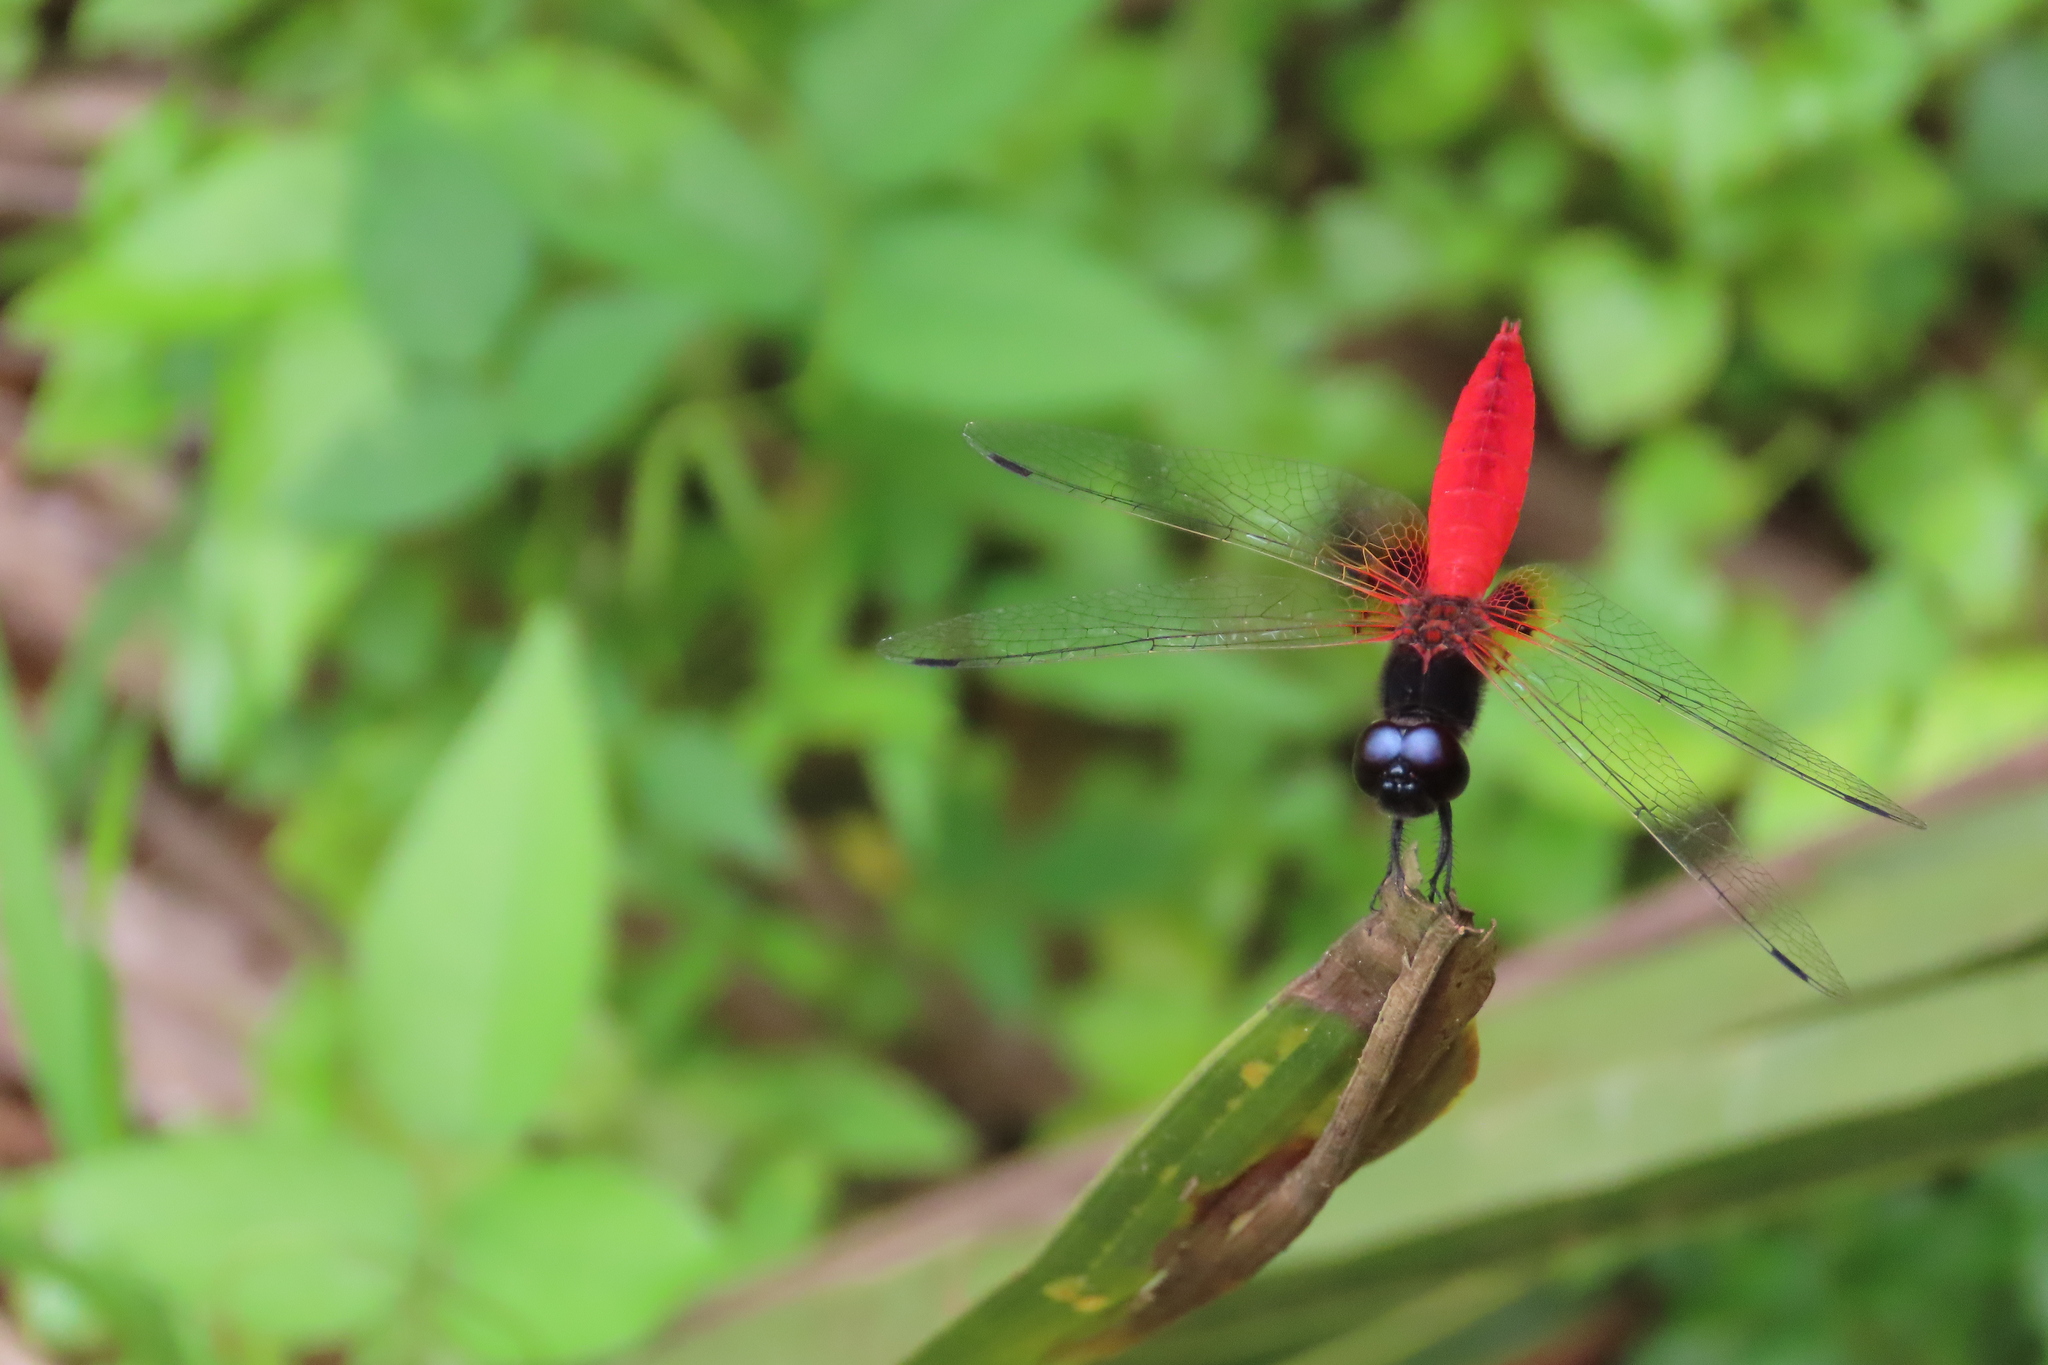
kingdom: Animalia
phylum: Arthropoda
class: Insecta
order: Odonata
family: Libellulidae
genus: Aethriamanta
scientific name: Aethriamanta brevipennis
